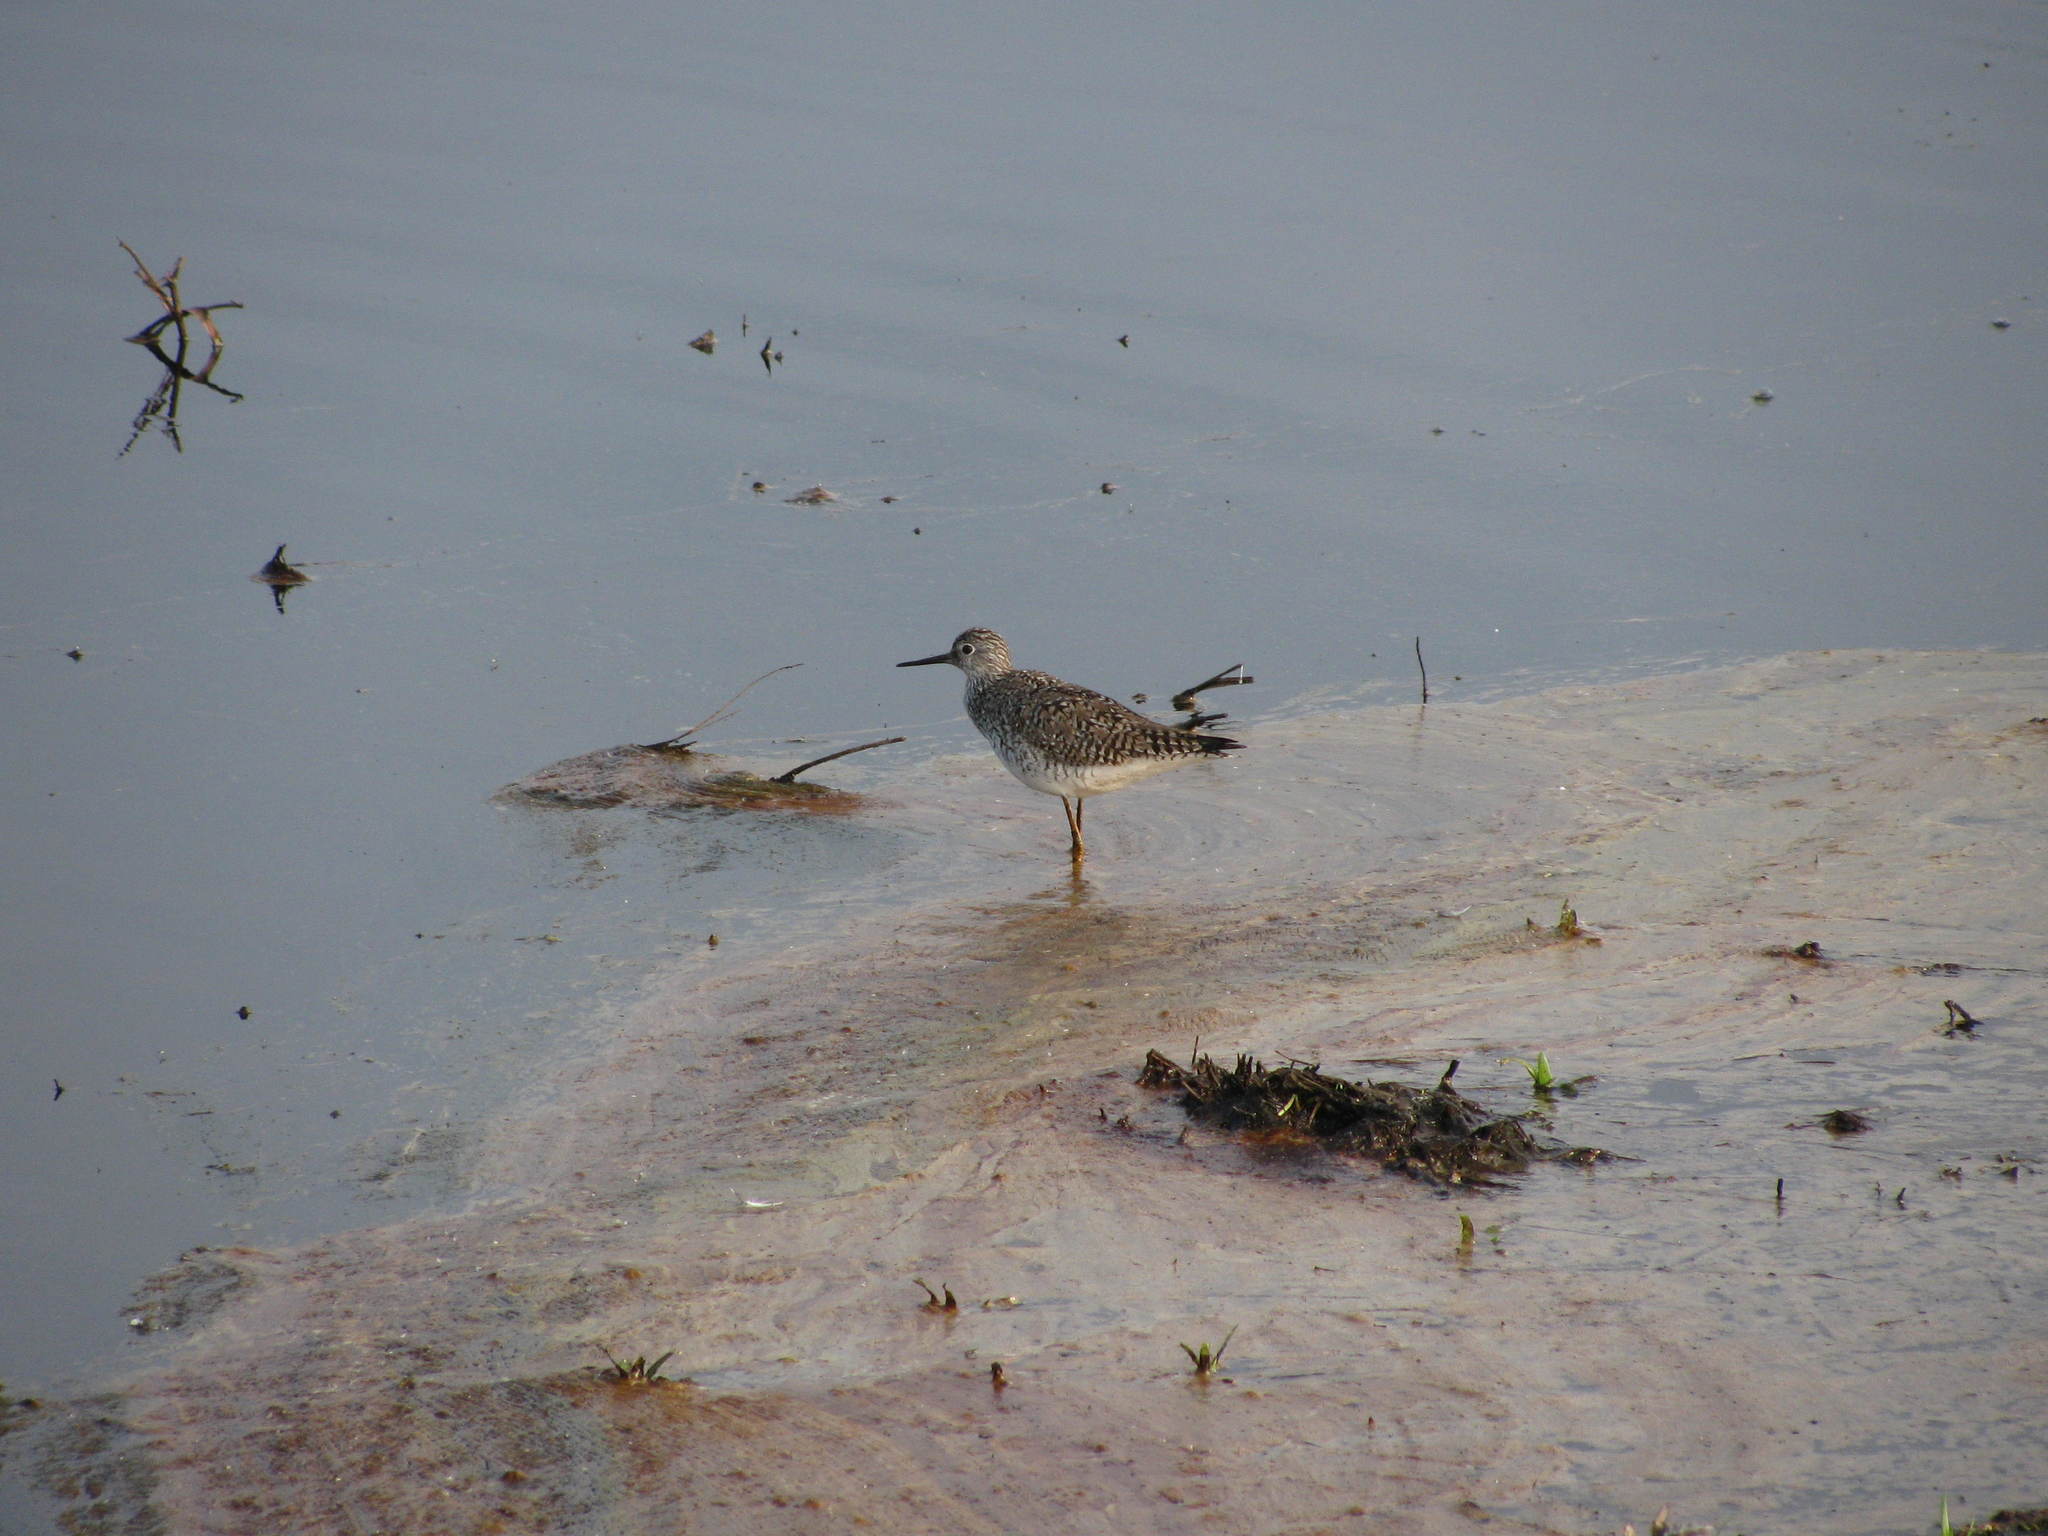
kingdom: Animalia
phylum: Chordata
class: Aves
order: Charadriiformes
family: Scolopacidae
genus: Tringa
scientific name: Tringa flavipes
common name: Lesser yellowlegs
